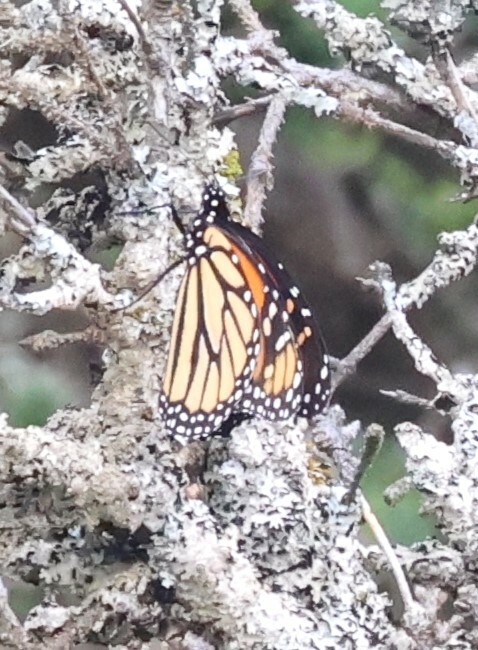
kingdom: Animalia
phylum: Arthropoda
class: Insecta
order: Lepidoptera
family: Nymphalidae
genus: Danaus
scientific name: Danaus plexippus
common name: Monarch
